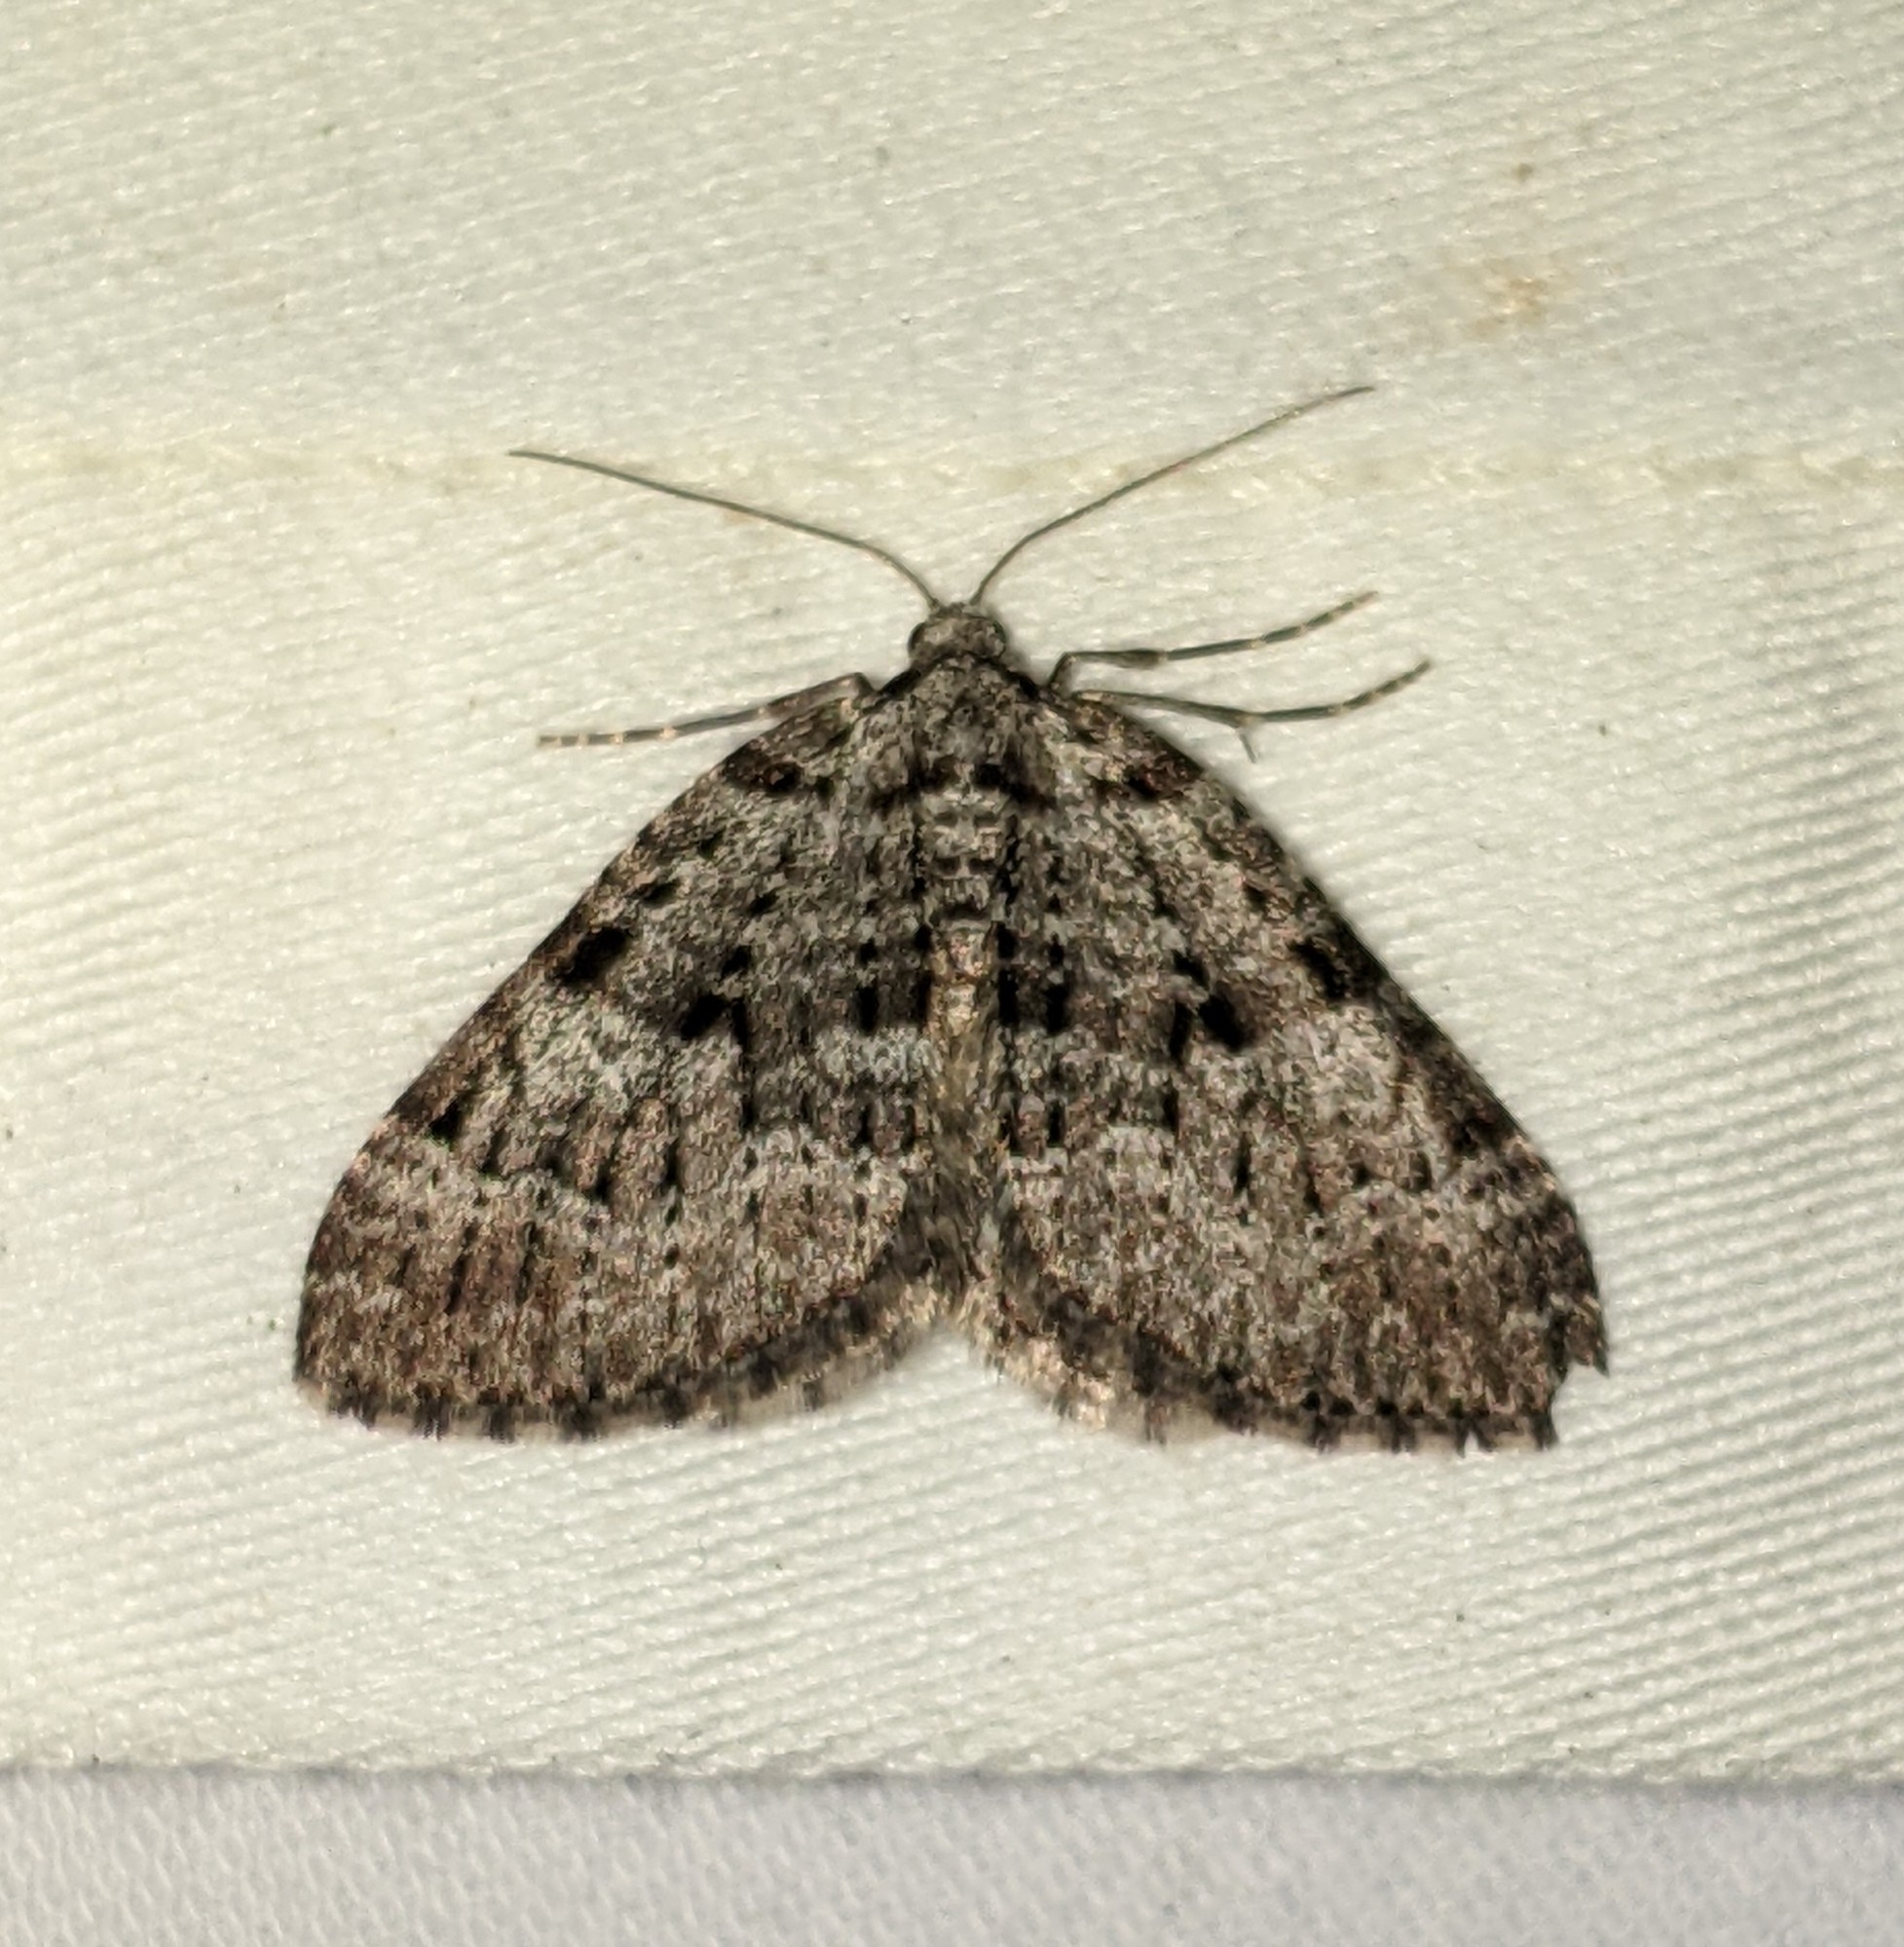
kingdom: Animalia
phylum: Arthropoda
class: Insecta
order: Lepidoptera
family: Geometridae
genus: Perizoma
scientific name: Perizoma curvilinea
